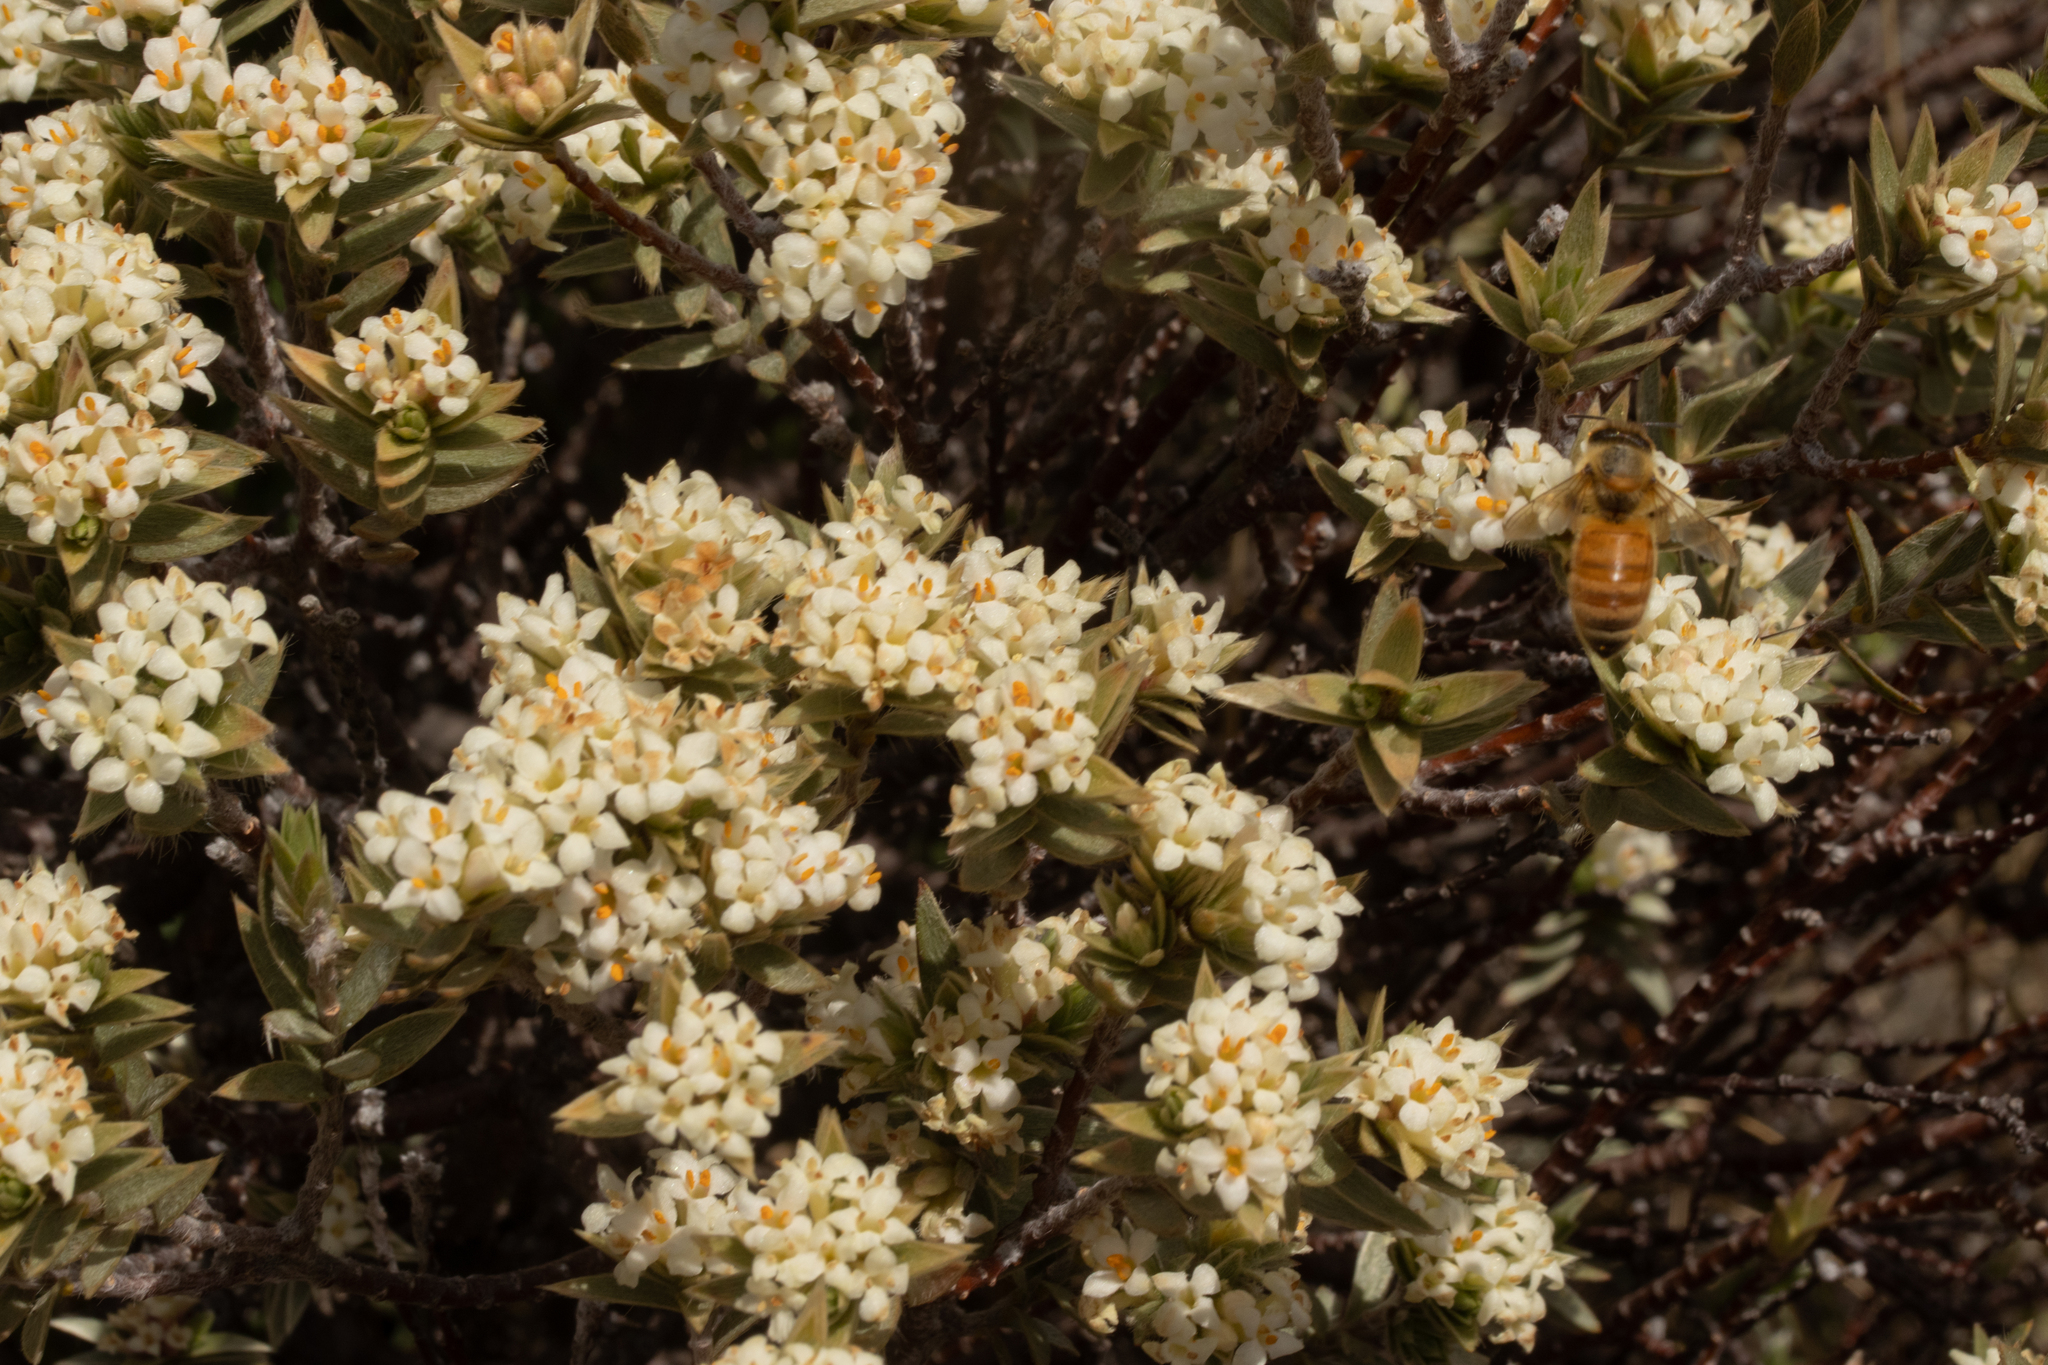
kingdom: Plantae
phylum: Tracheophyta
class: Magnoliopsida
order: Malvales
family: Thymelaeaceae
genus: Pimelea
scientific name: Pimelea aridula
